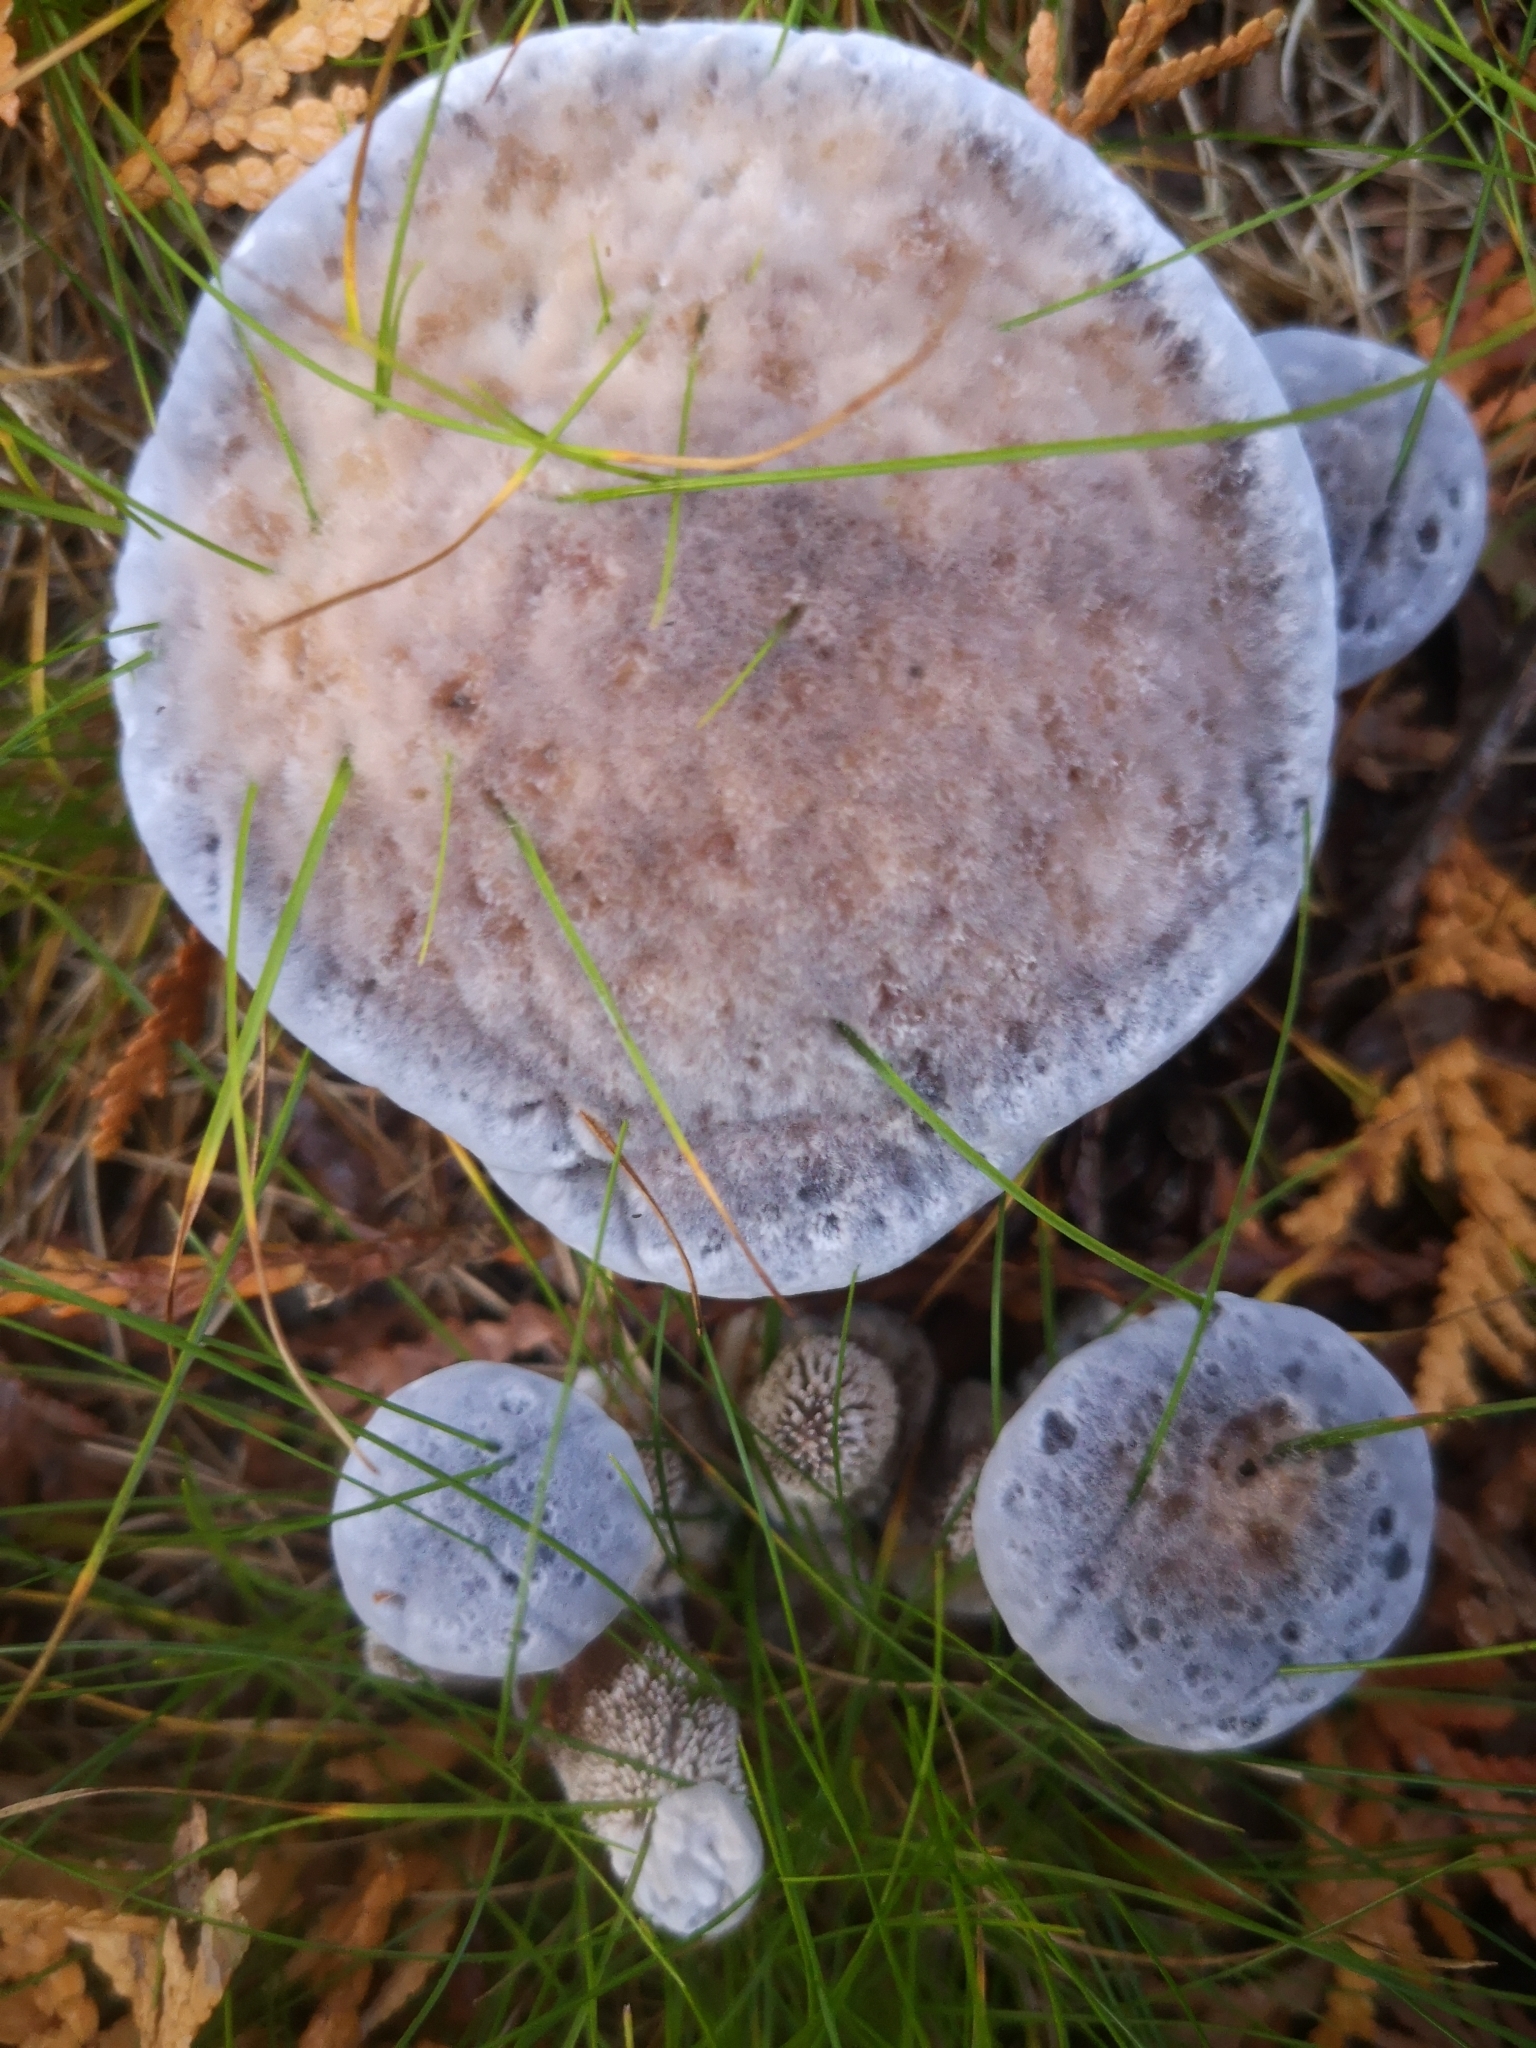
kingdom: Fungi
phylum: Basidiomycota
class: Agaricomycetes
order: Thelephorales
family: Bankeraceae
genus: Hydnellum
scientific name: Hydnellum caeruleum
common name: Blue corky spine fungus
